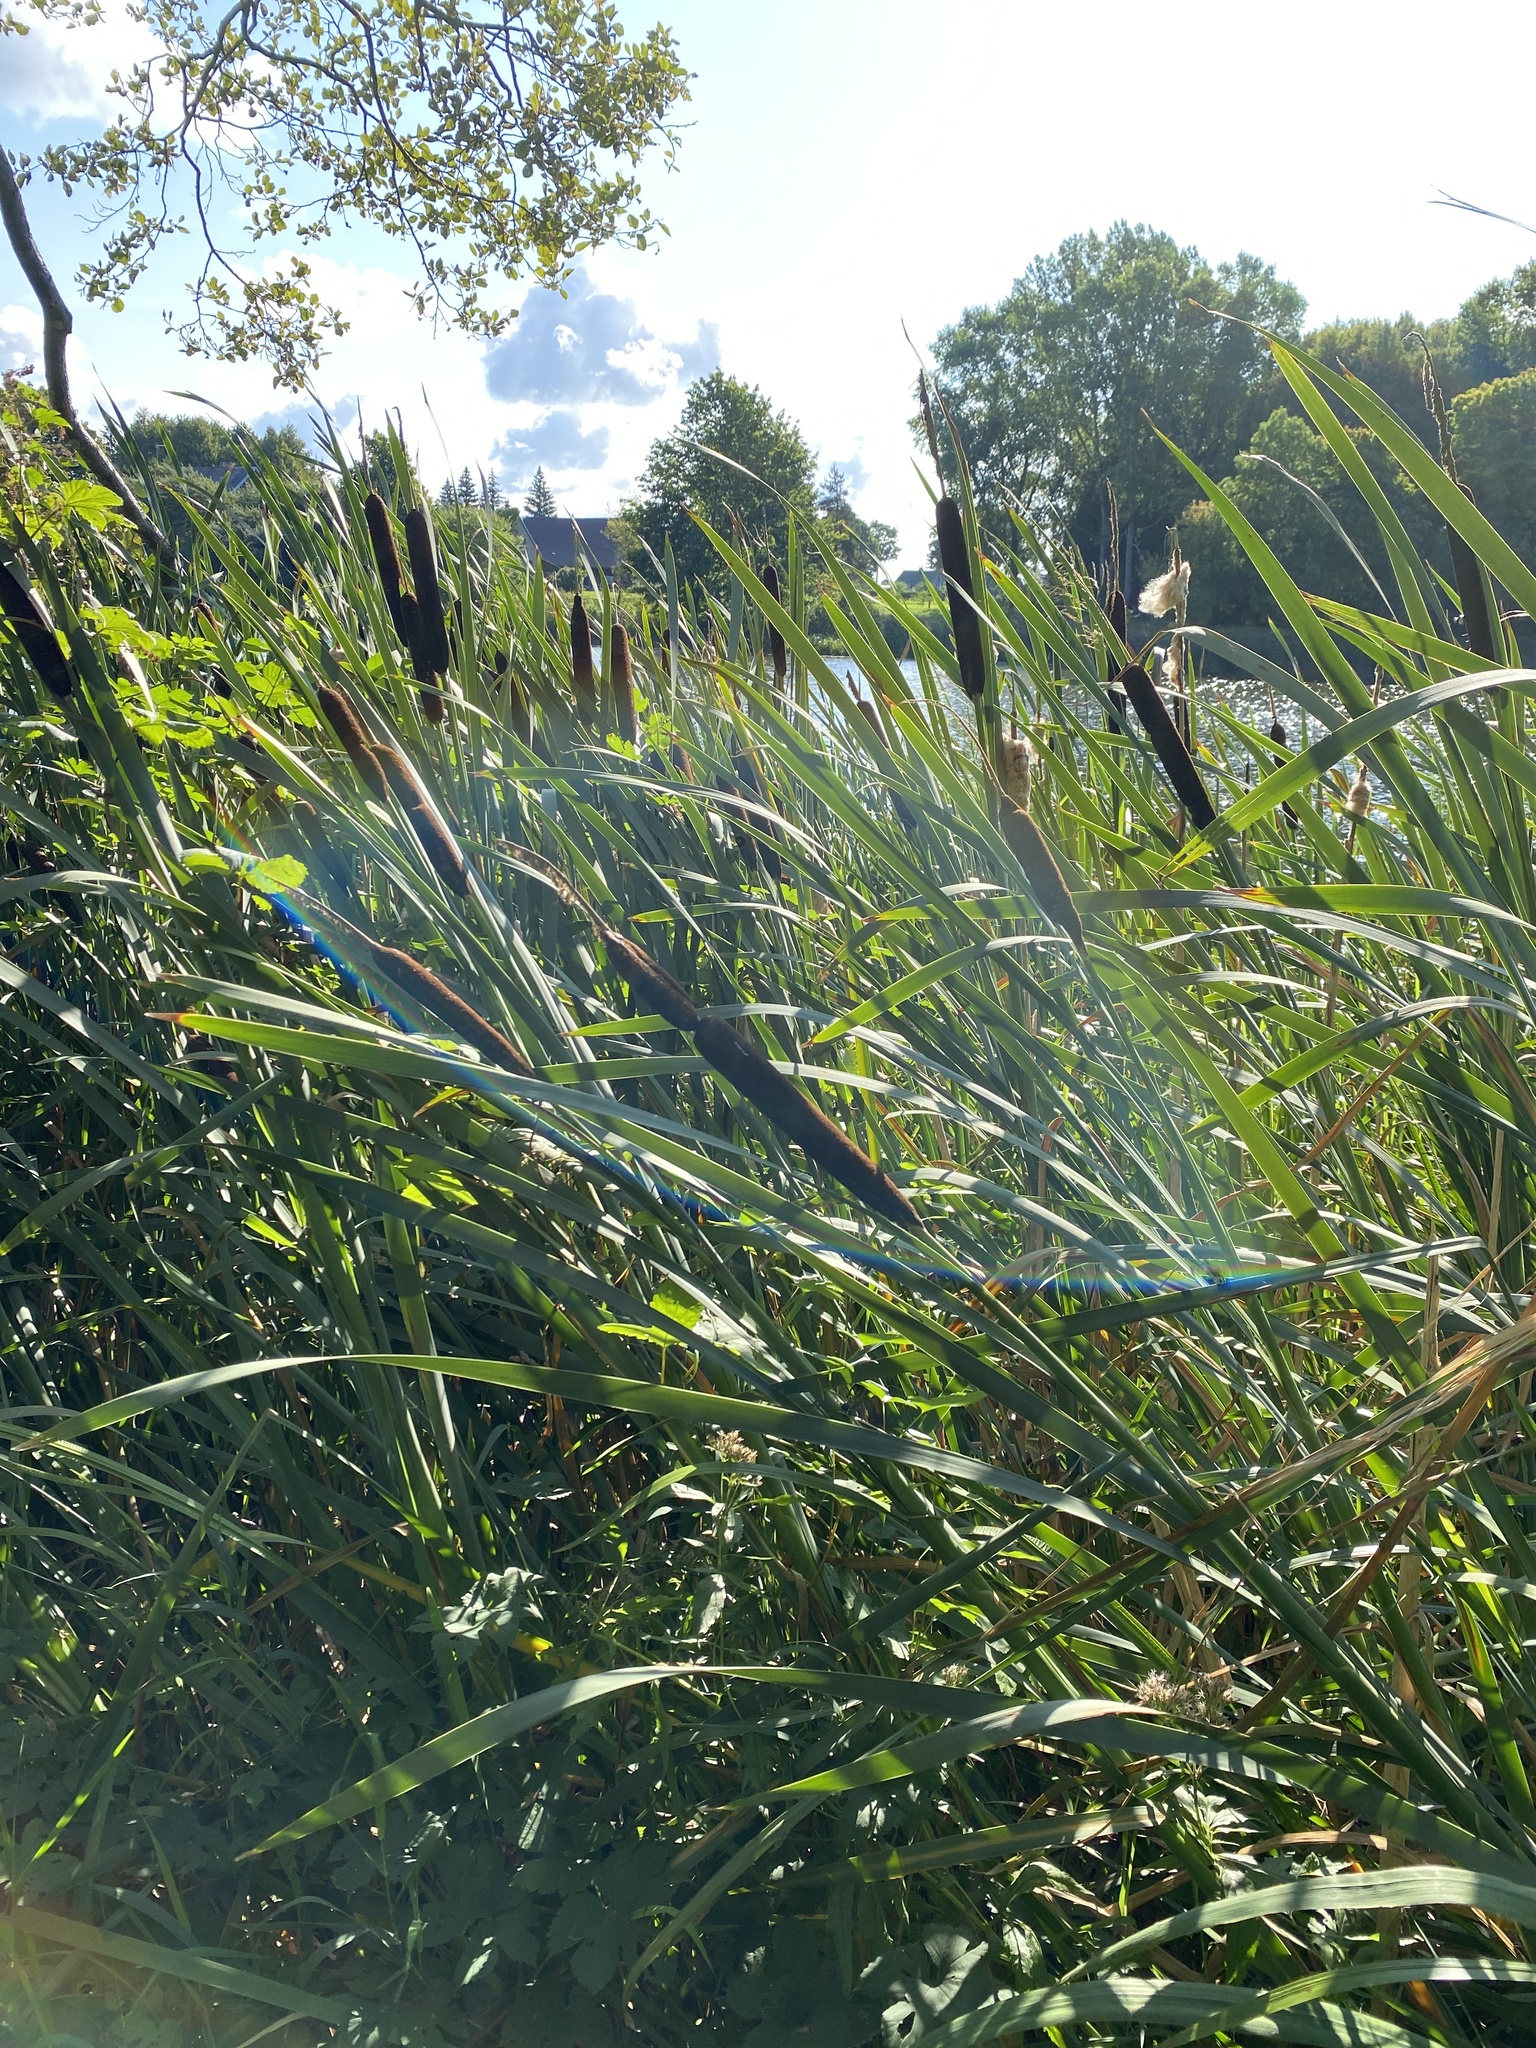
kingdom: Plantae
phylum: Tracheophyta
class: Liliopsida
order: Poales
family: Typhaceae
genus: Typha
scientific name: Typha latifolia
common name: Broadleaf cattail
